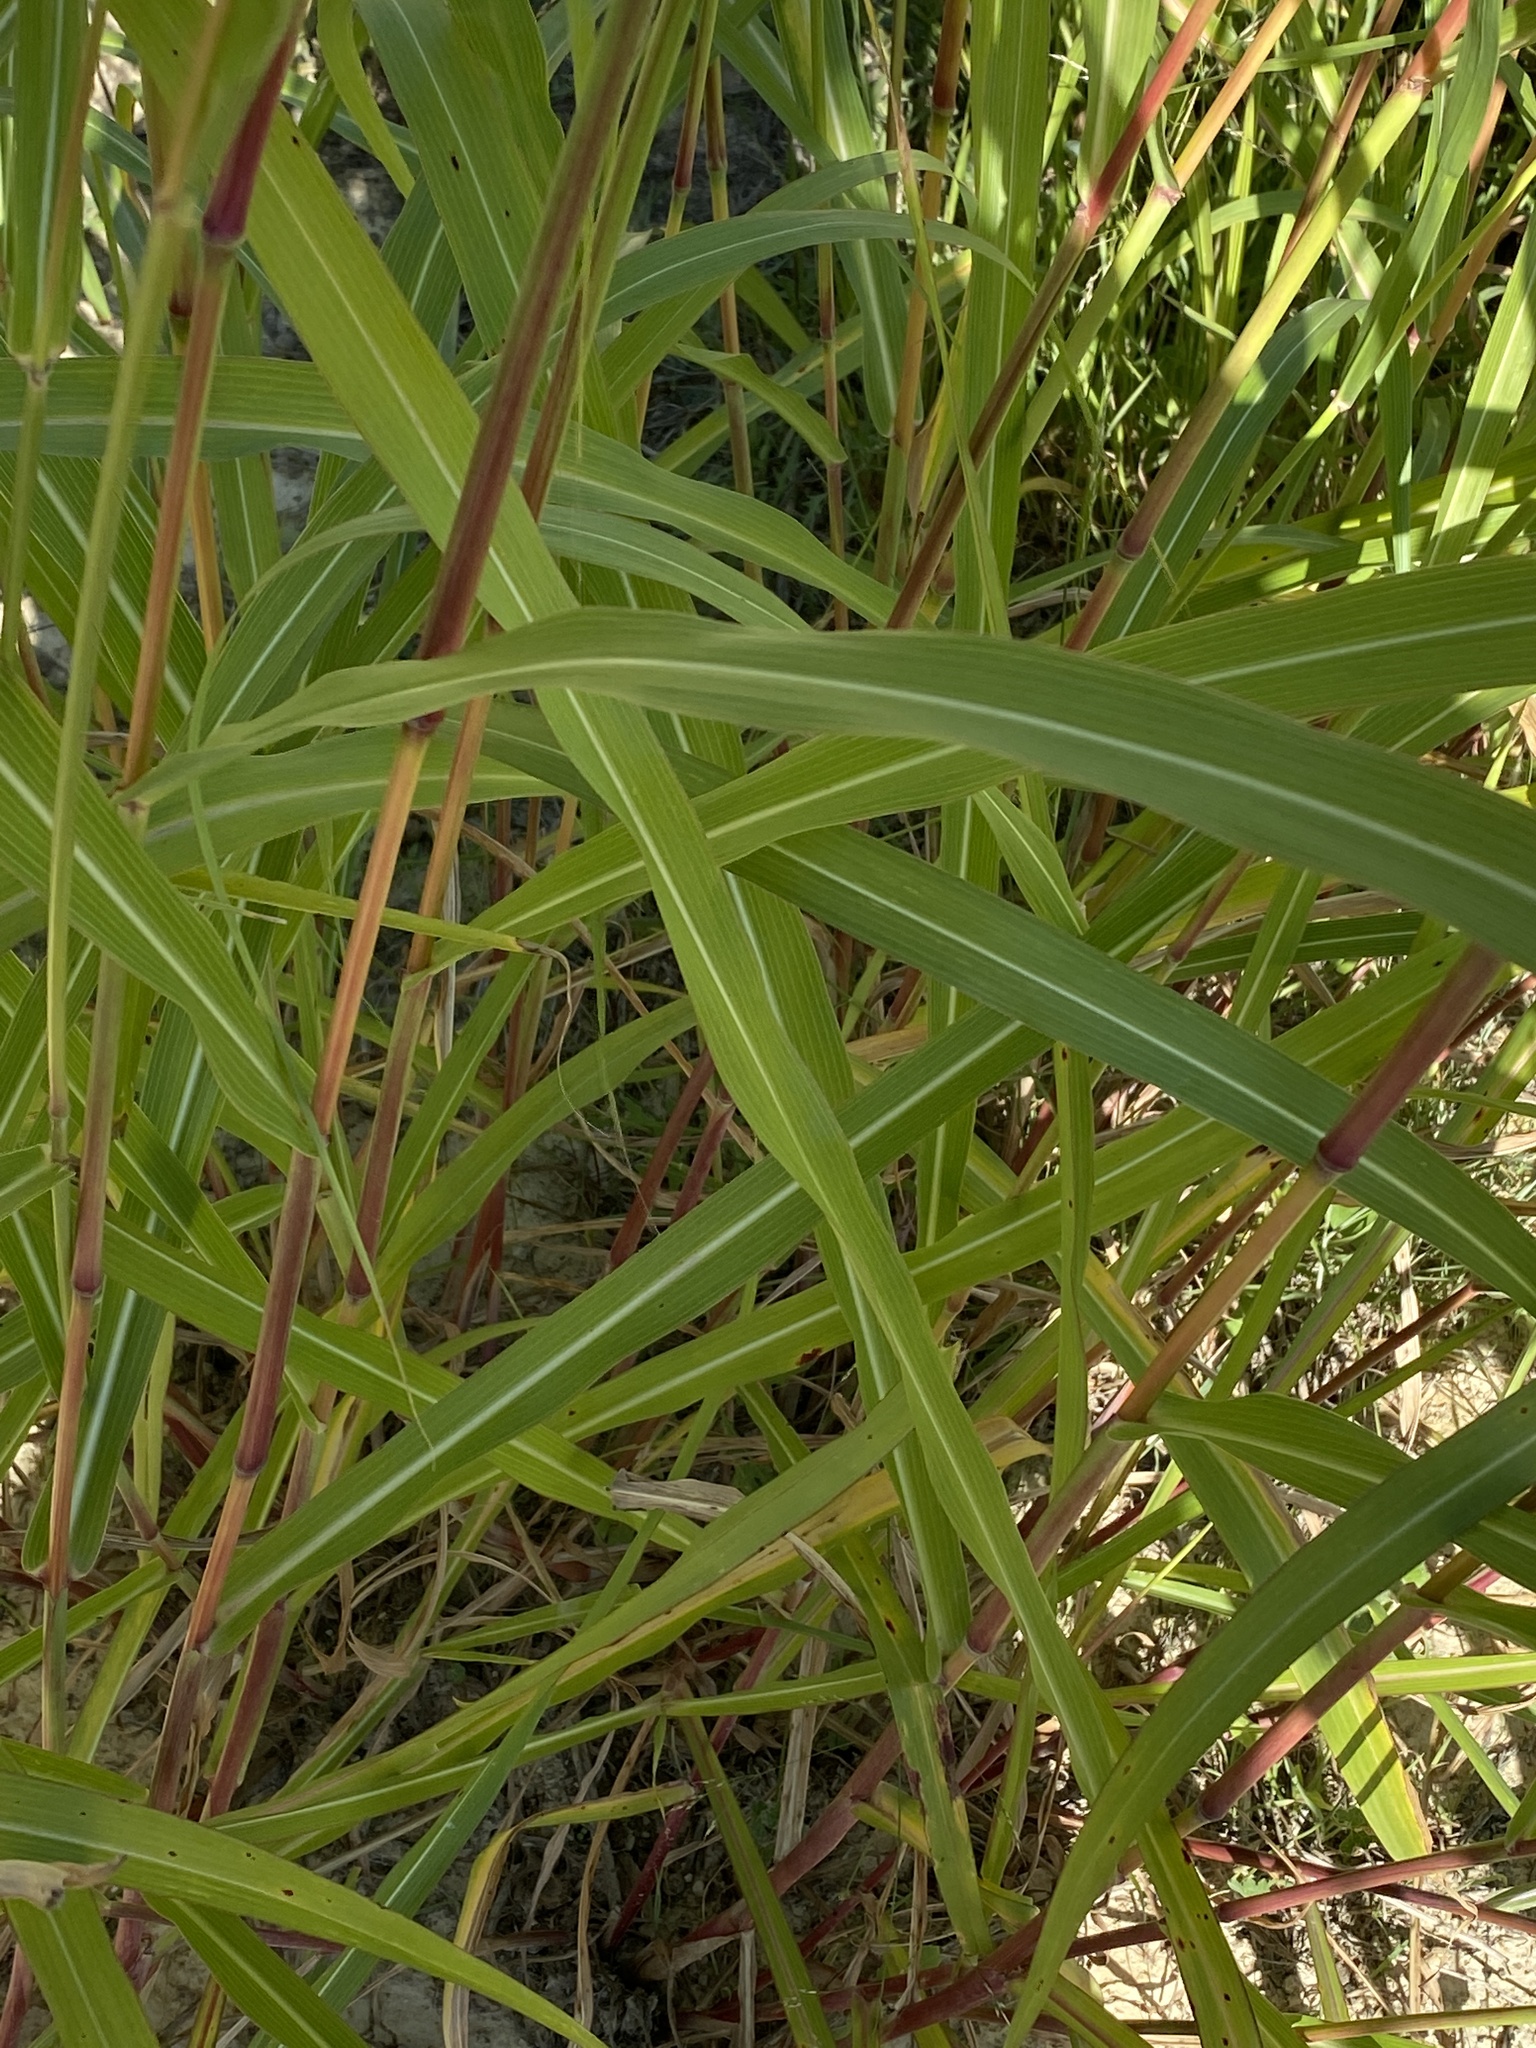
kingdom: Plantae
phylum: Tracheophyta
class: Liliopsida
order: Poales
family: Poaceae
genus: Sorghum
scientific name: Sorghum halepense
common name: Johnson-grass
